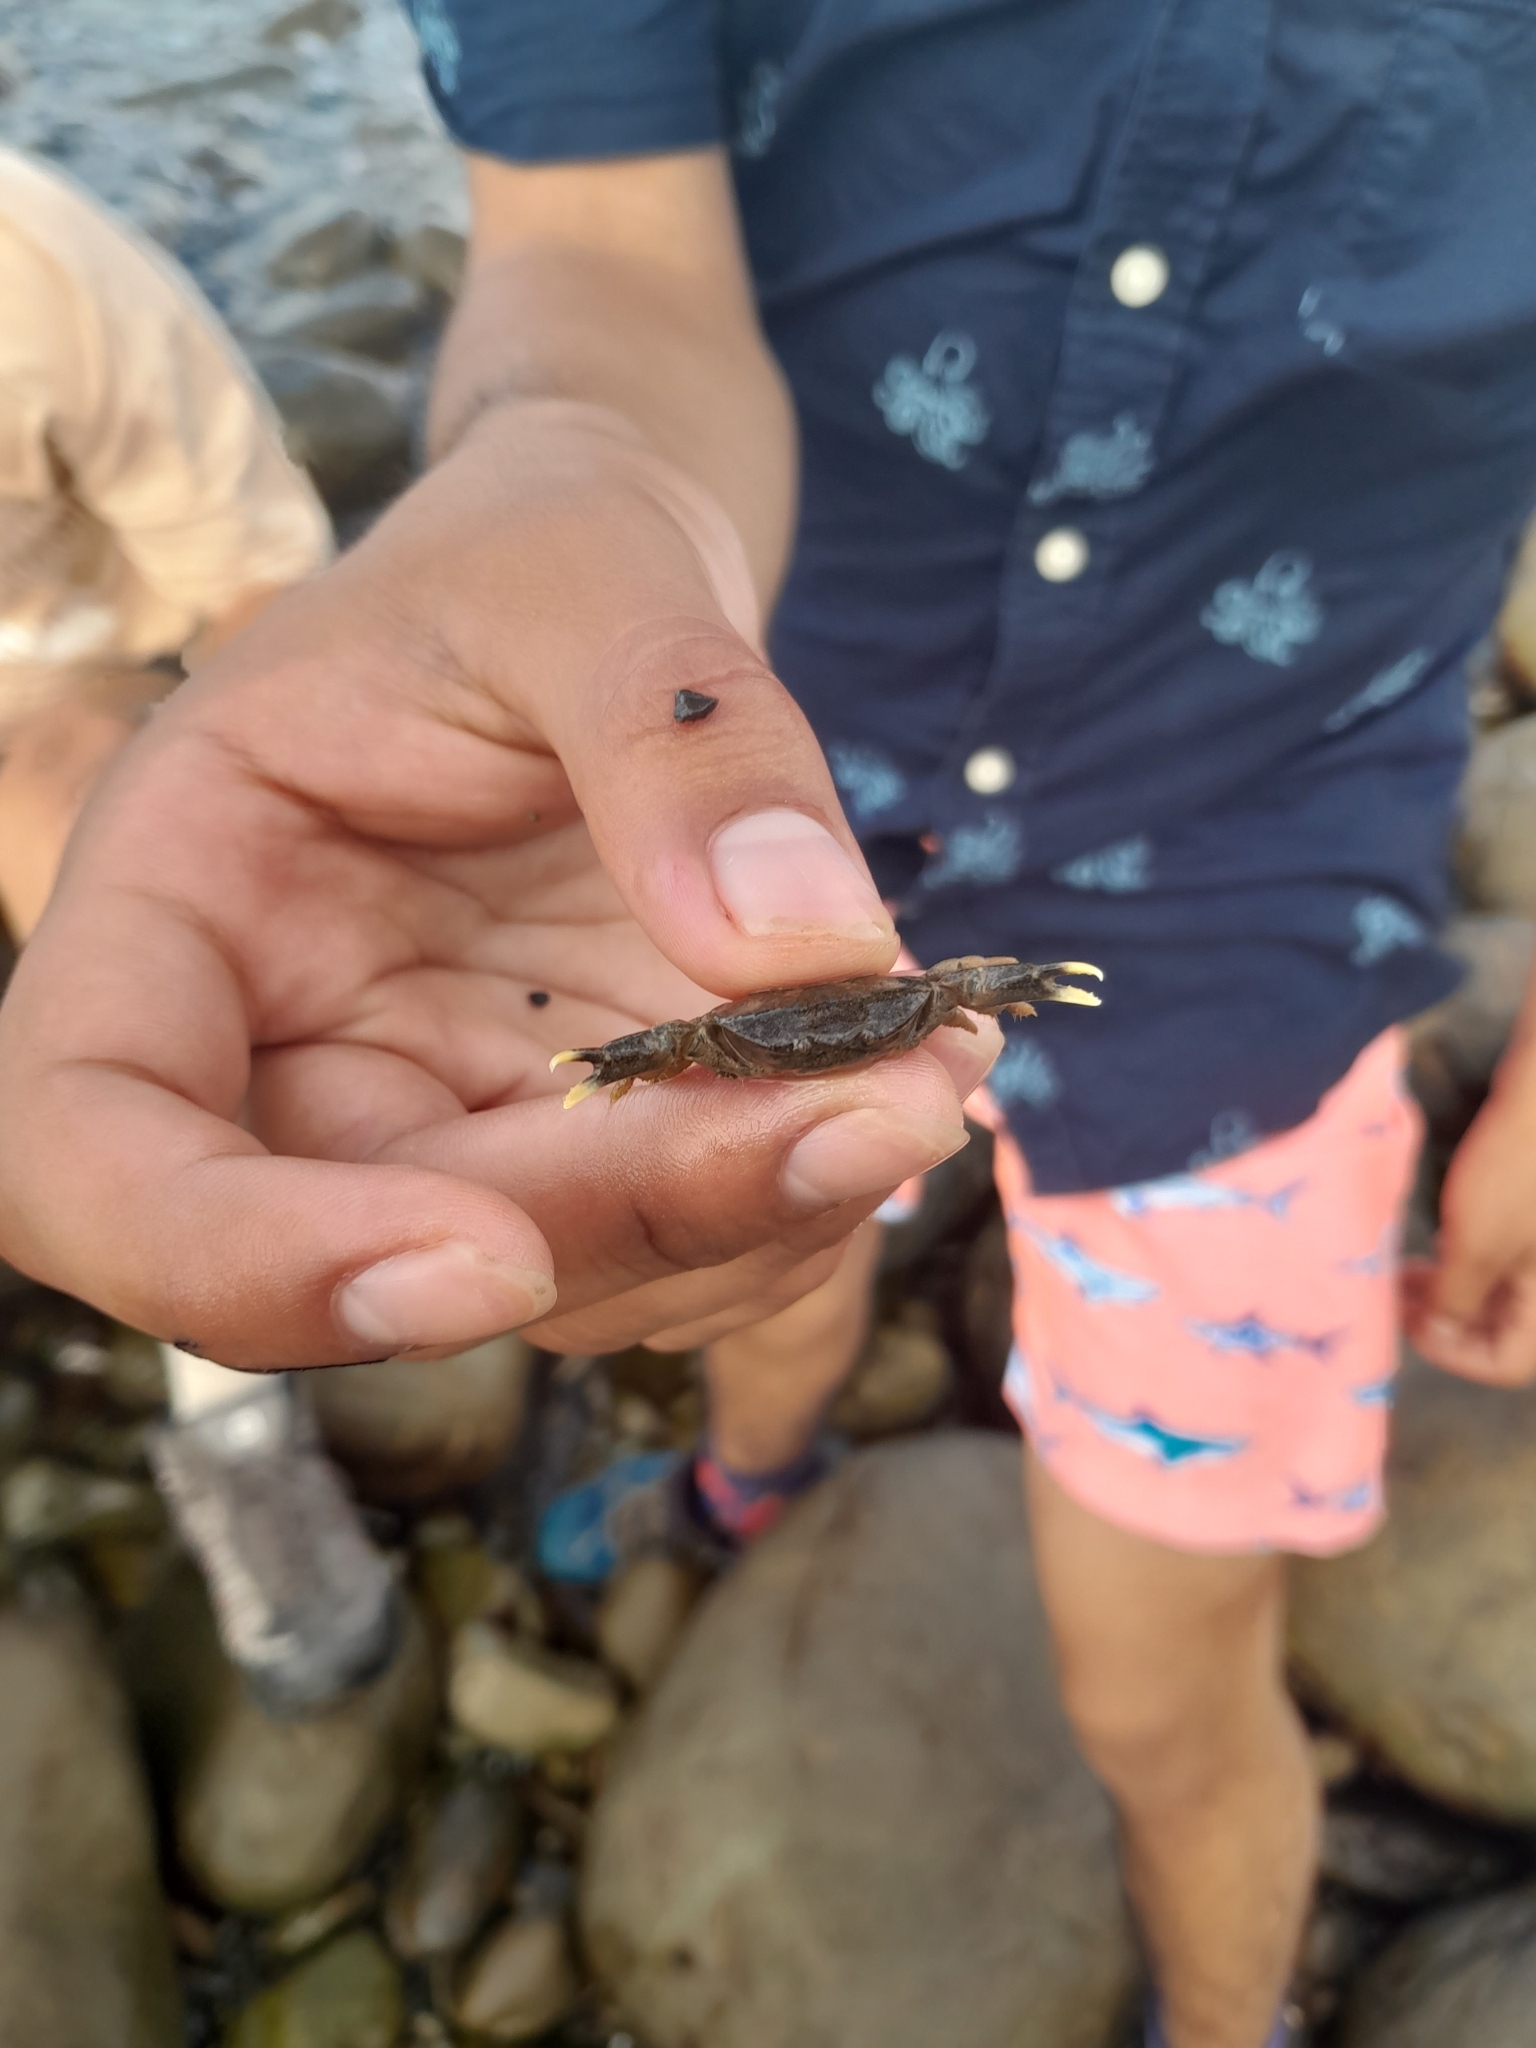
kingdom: Animalia
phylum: Arthropoda
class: Malacostraca
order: Decapoda
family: Heteroziidae
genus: Heterozius
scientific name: Heterozius rotundifrons
